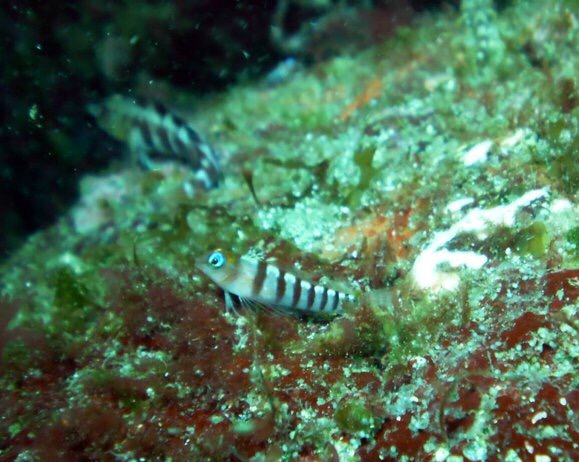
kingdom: Animalia
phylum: Chordata
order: Perciformes
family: Tripterygiidae
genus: Notoclinops
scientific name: Notoclinops segmentatus
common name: Blue-eyed triplefin
